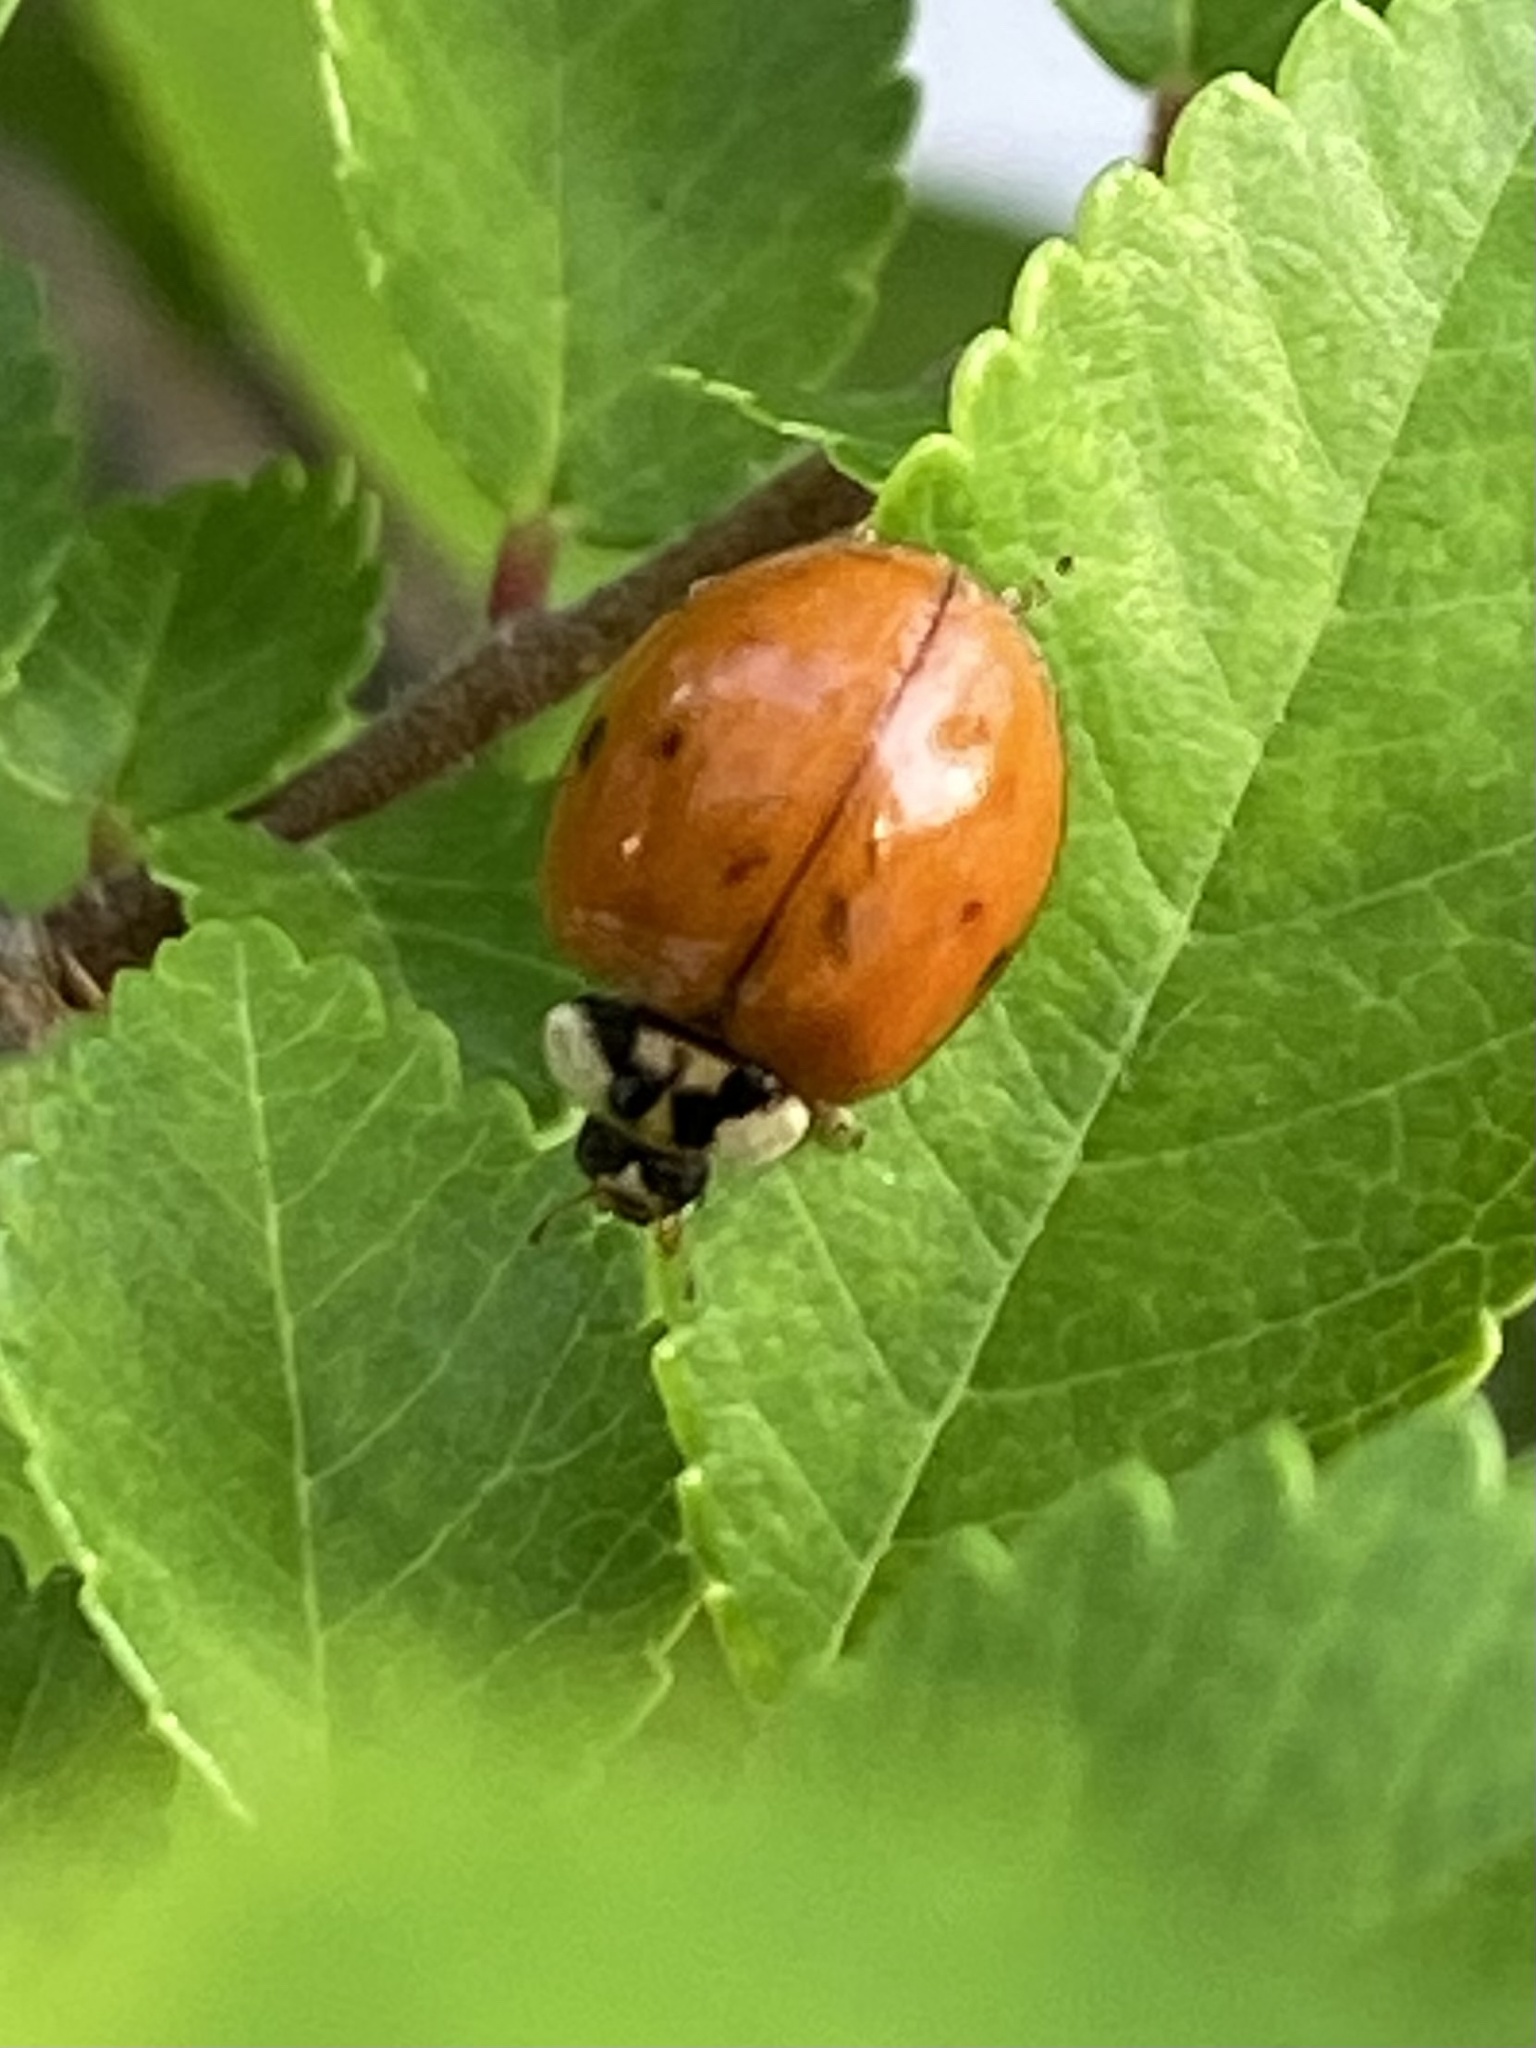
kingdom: Animalia
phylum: Arthropoda
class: Insecta
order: Coleoptera
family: Coccinellidae
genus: Harmonia
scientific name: Harmonia axyridis
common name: Harlequin ladybird
